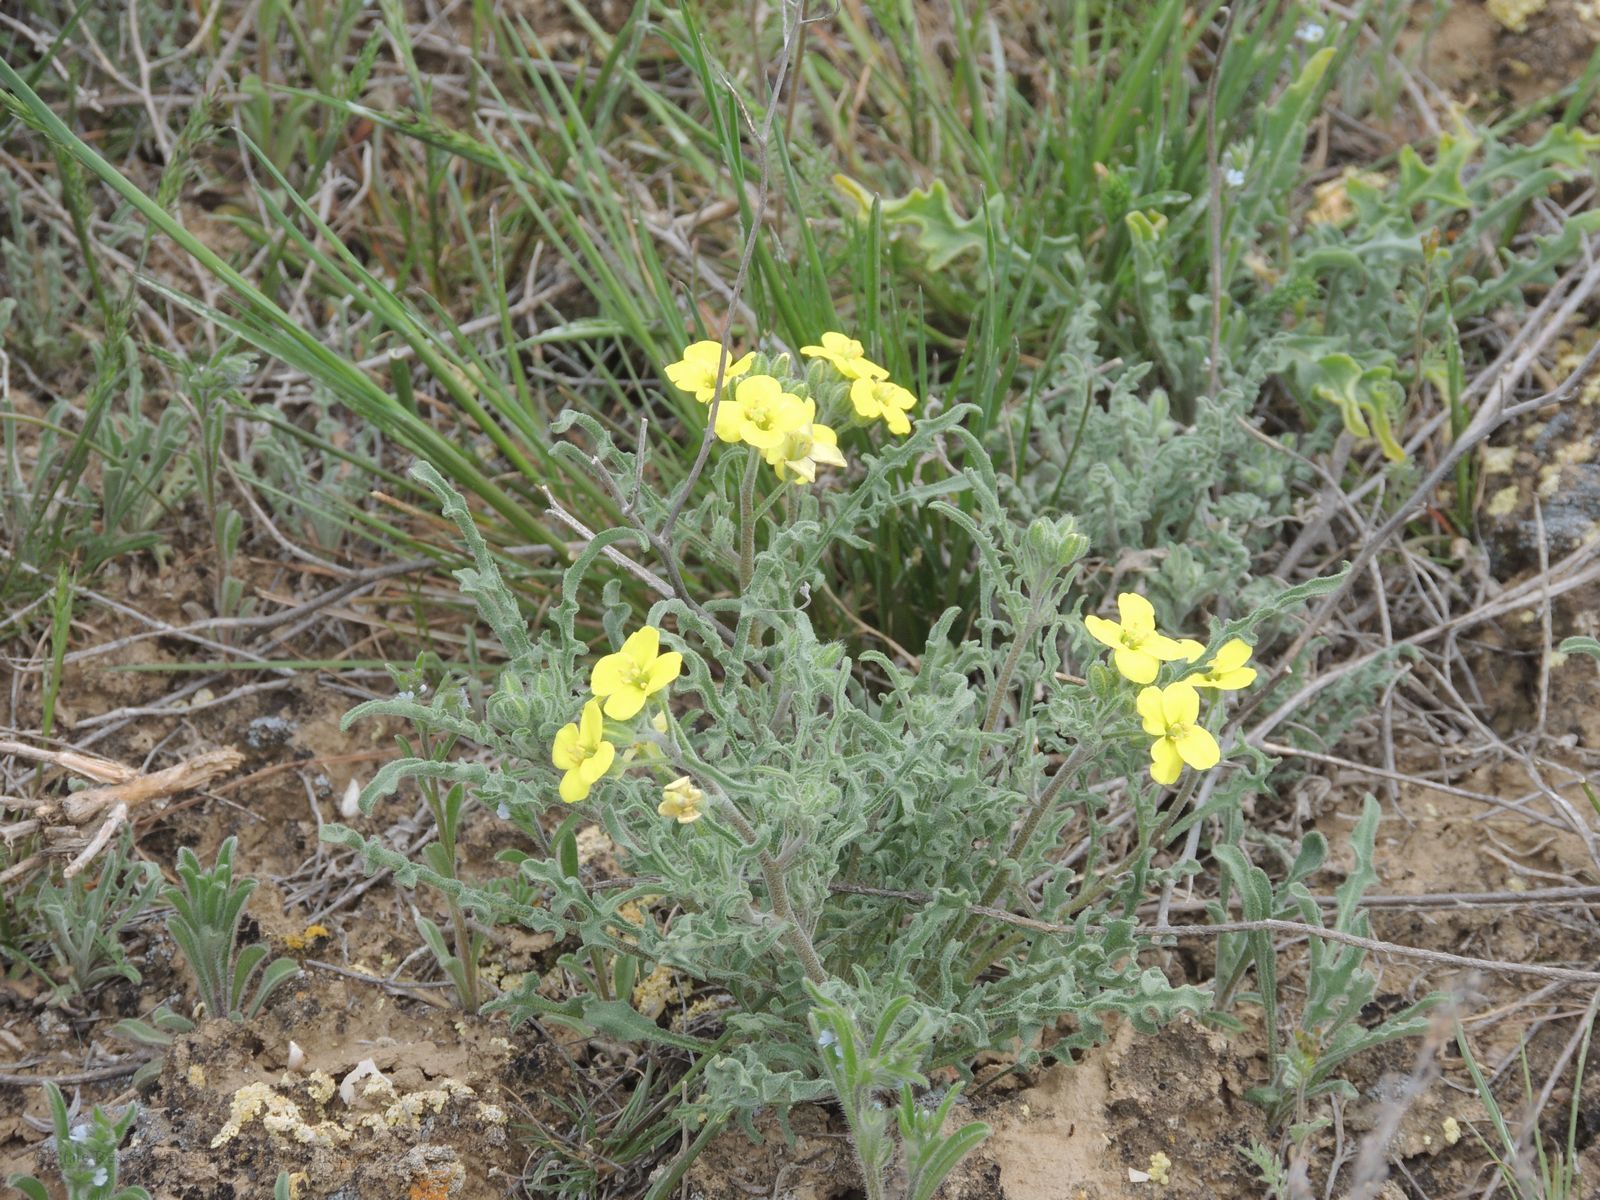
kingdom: Plantae
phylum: Tracheophyta
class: Magnoliopsida
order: Brassicales
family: Brassicaceae
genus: Sterigmostemum
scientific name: Sterigmostemum caspicum
